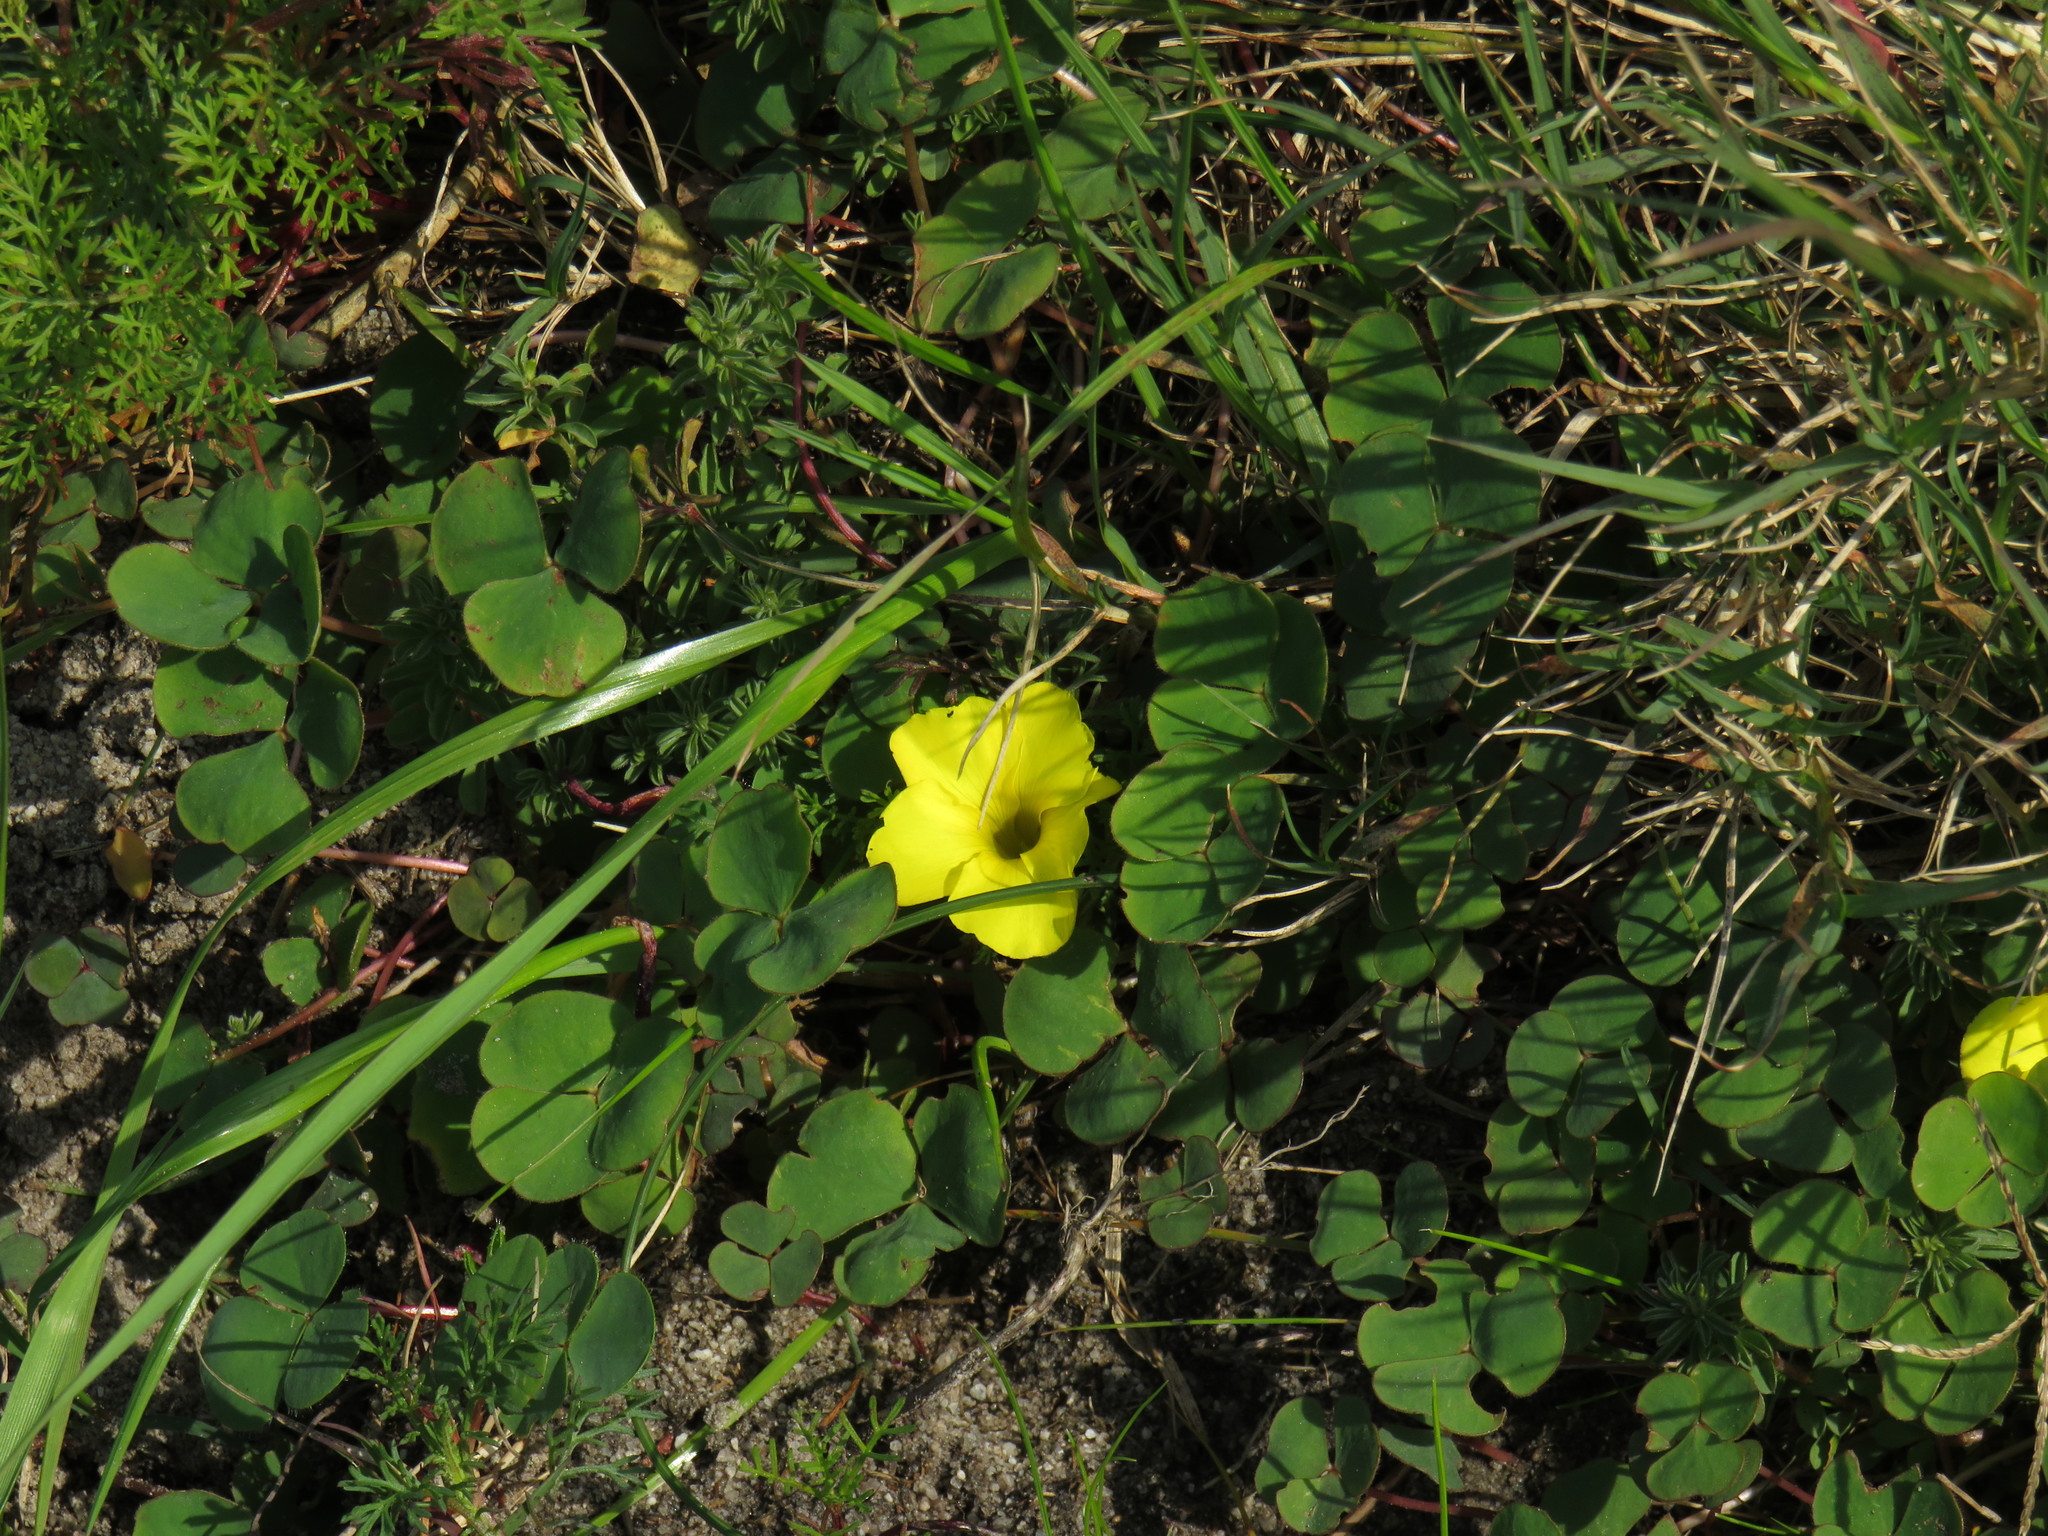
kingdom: Plantae
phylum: Tracheophyta
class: Magnoliopsida
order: Oxalidales
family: Oxalidaceae
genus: Oxalis
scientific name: Oxalis luteola
